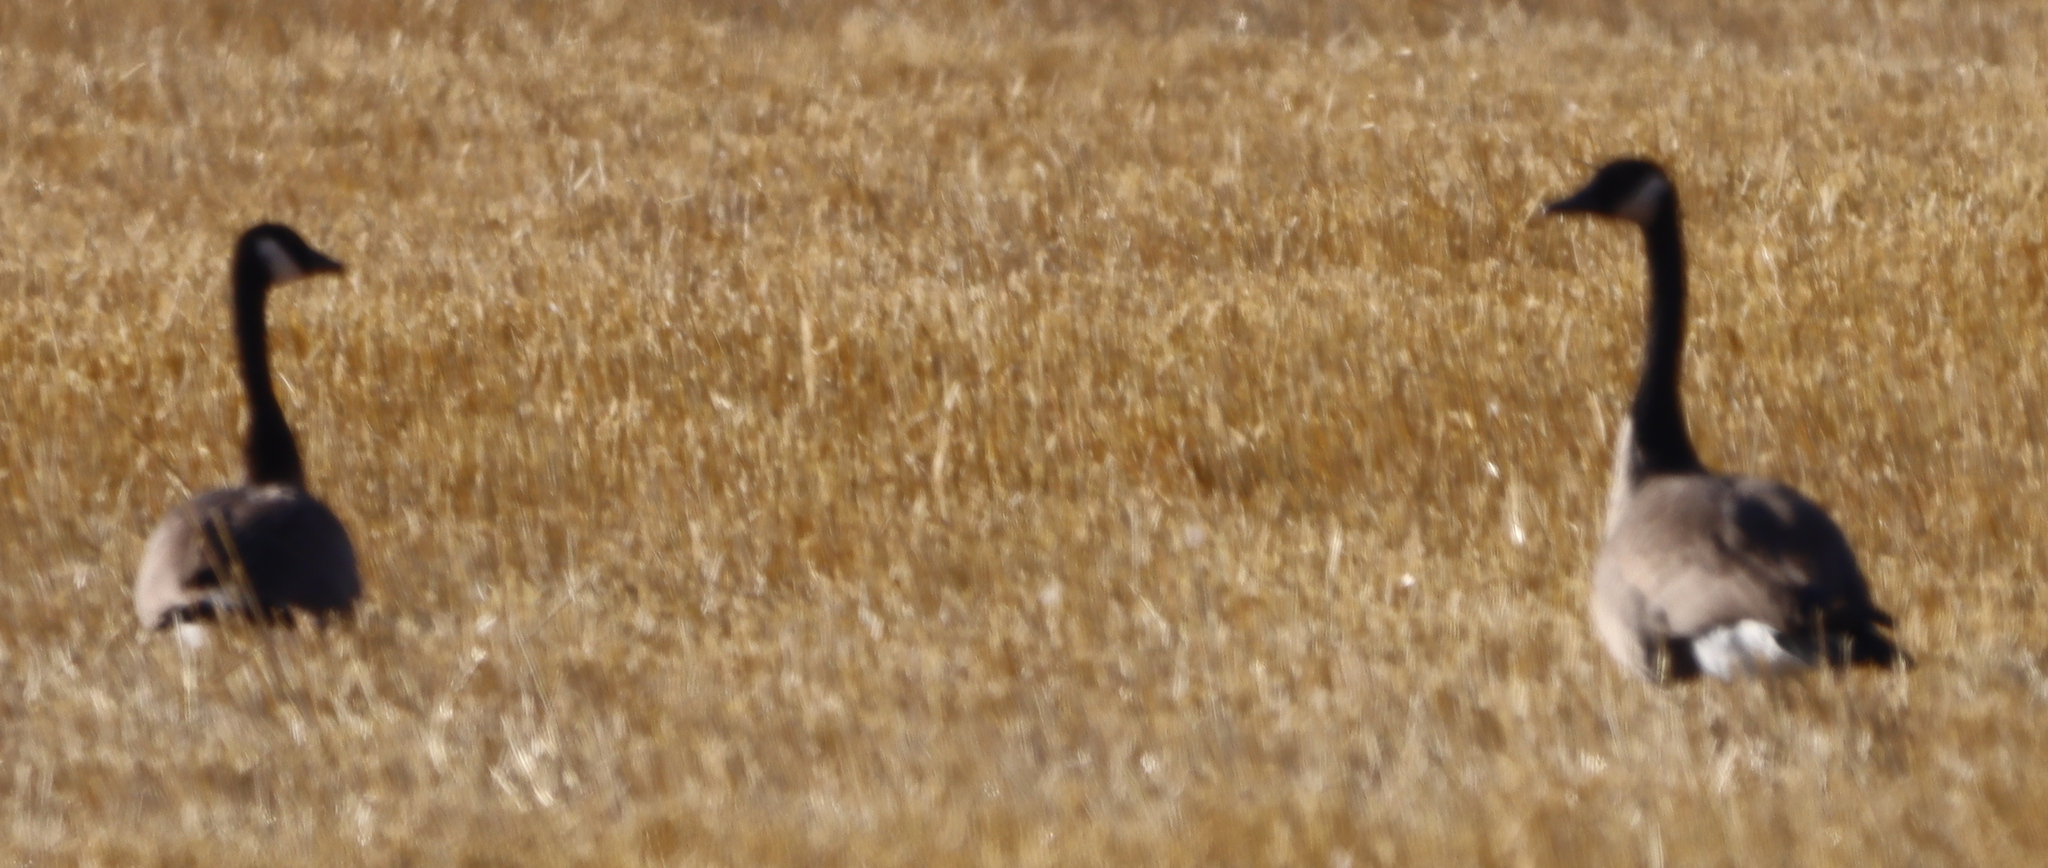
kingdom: Animalia
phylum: Chordata
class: Aves
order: Anseriformes
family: Anatidae
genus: Branta
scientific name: Branta canadensis
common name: Canada goose
